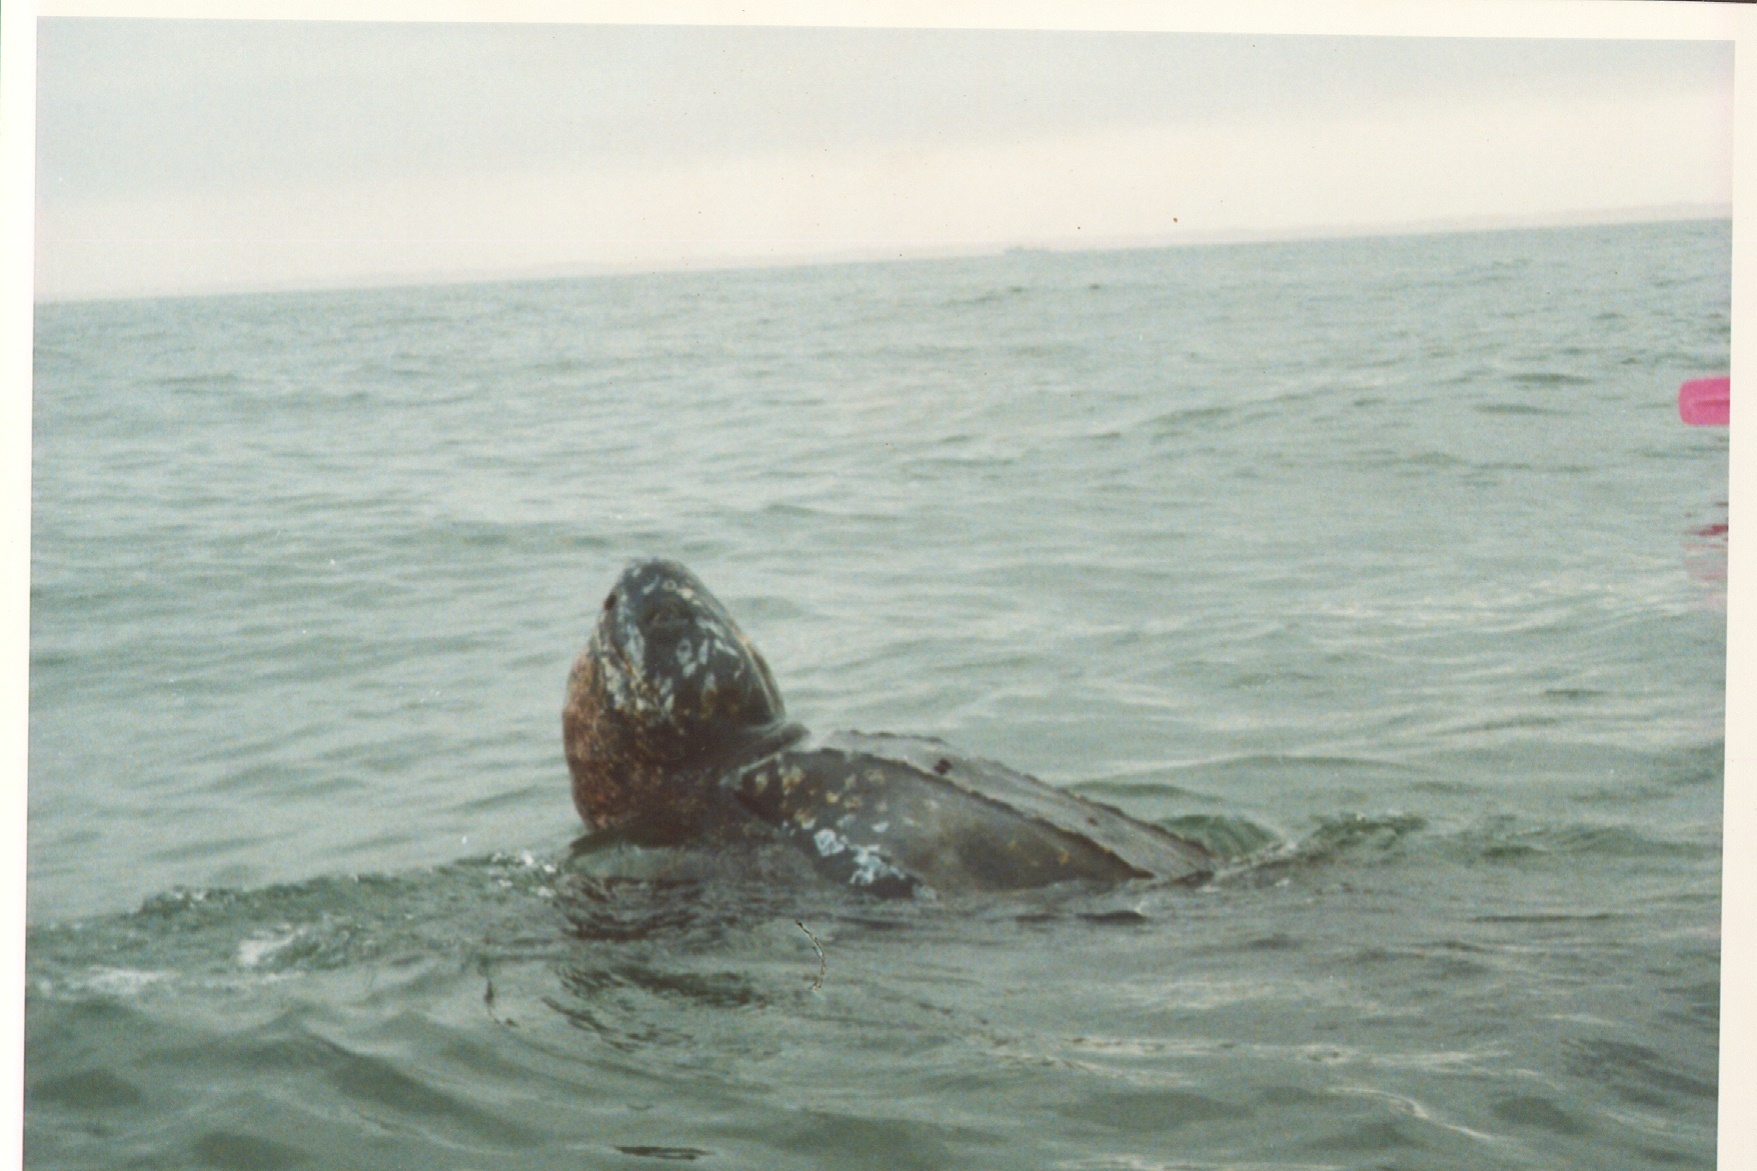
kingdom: Animalia
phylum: Chordata
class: Testudines
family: Dermochelyidae
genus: Dermochelys
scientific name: Dermochelys coriacea
